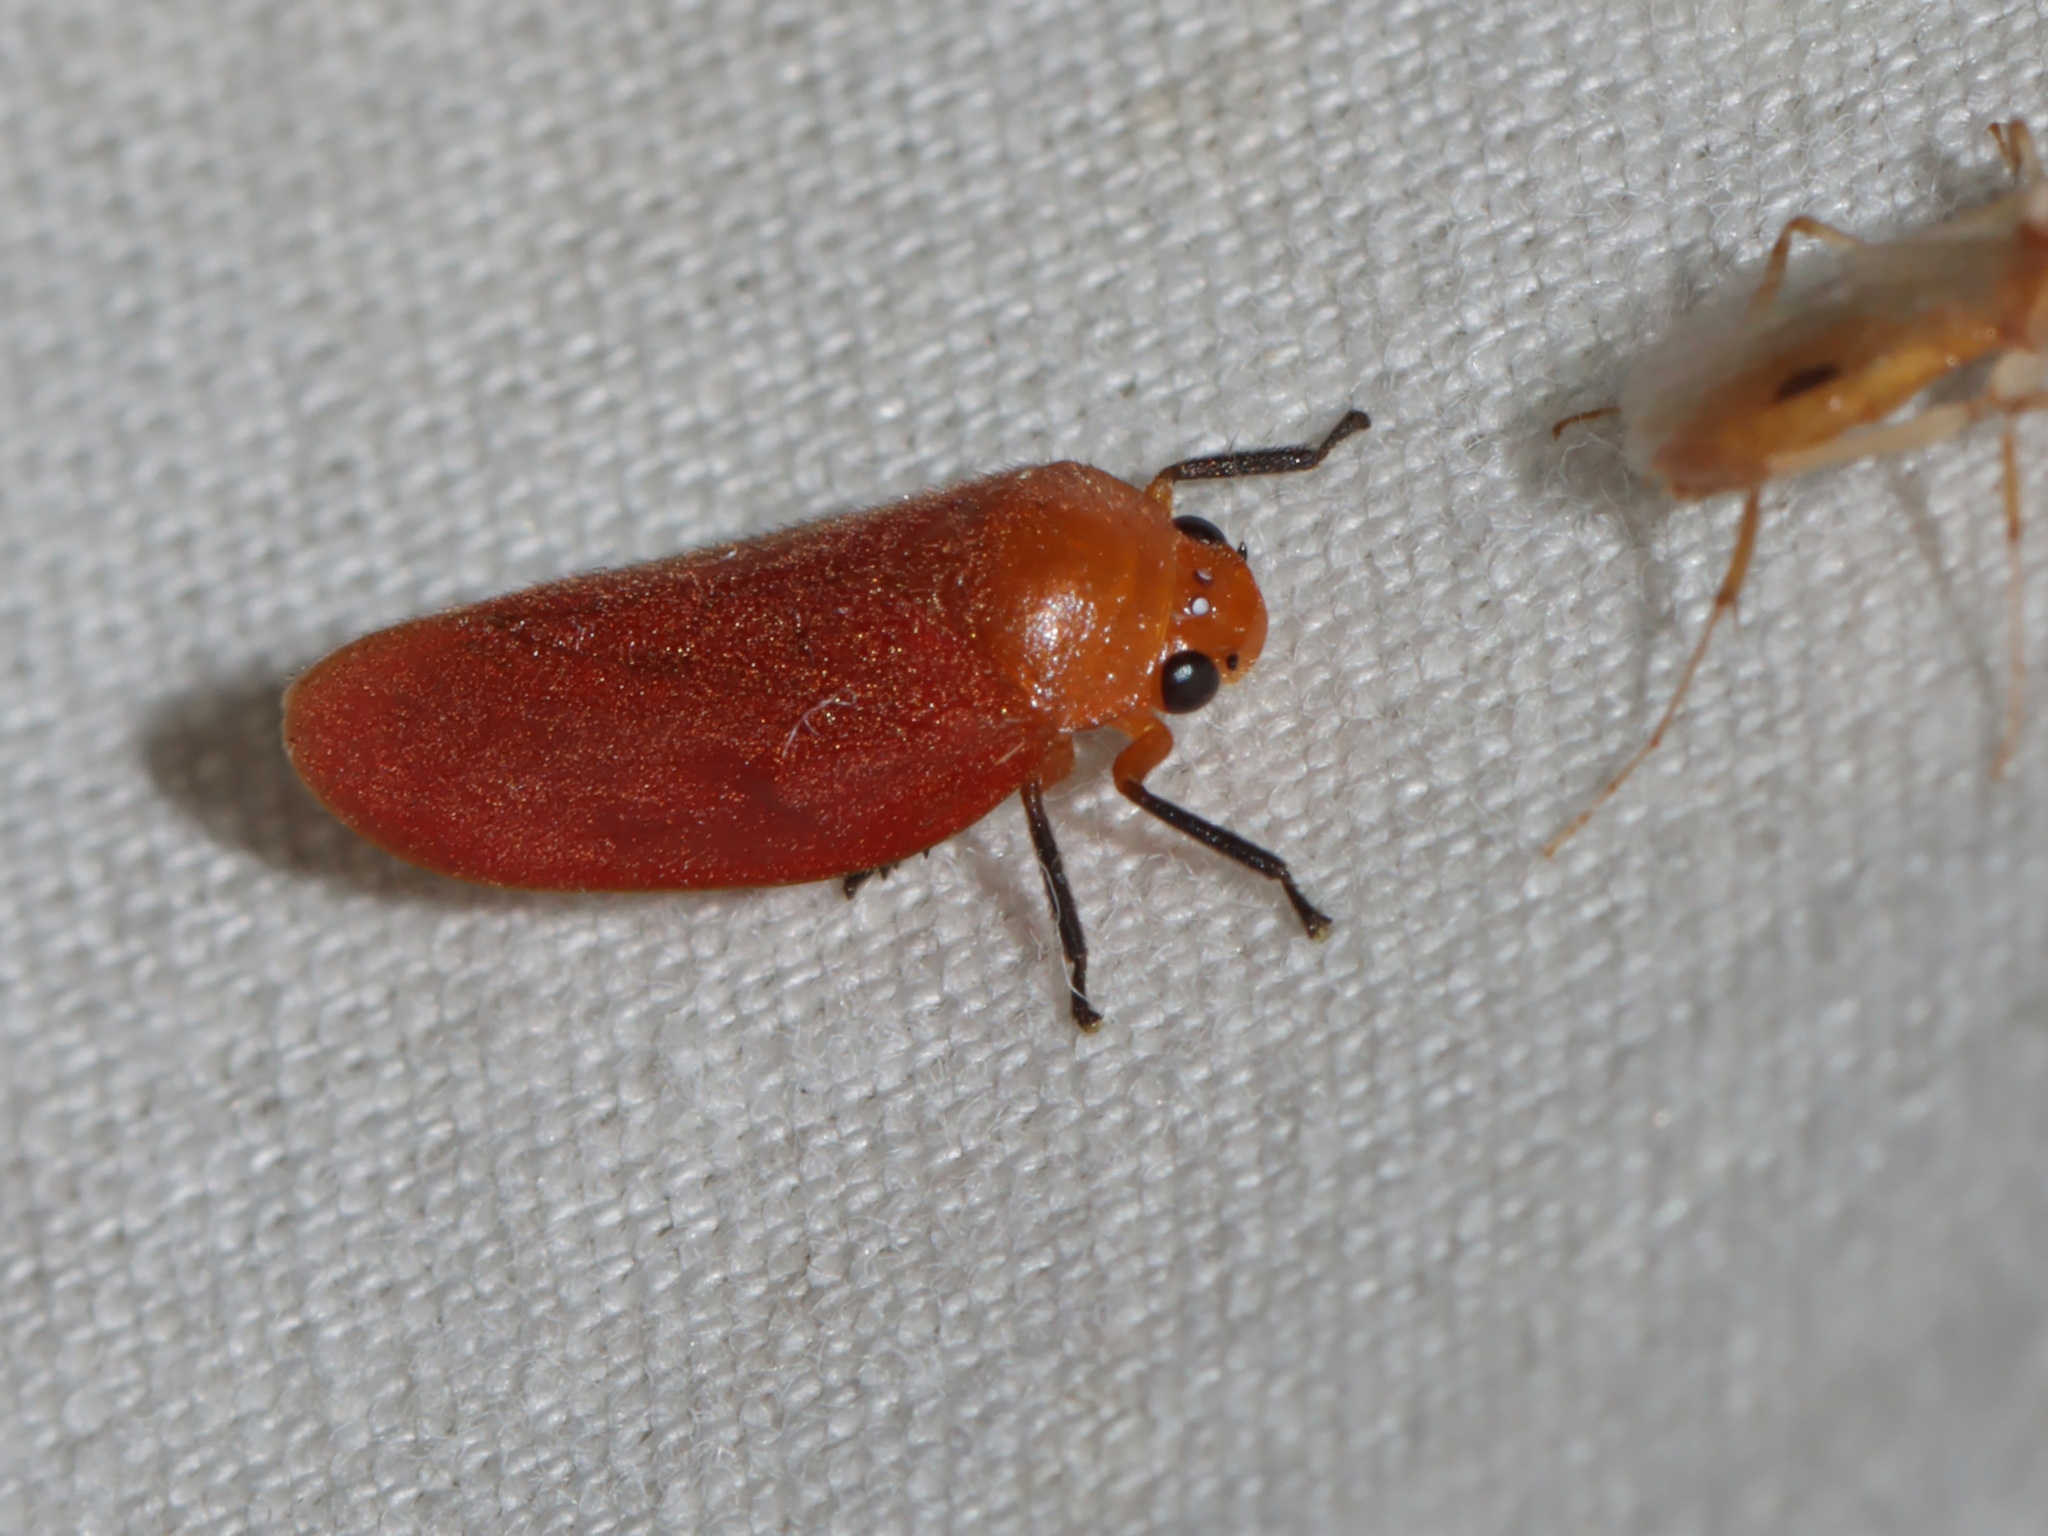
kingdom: Animalia
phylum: Arthropoda
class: Insecta
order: Hemiptera
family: Cercopidae
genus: Eoscarta
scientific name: Eoscarta borealis
